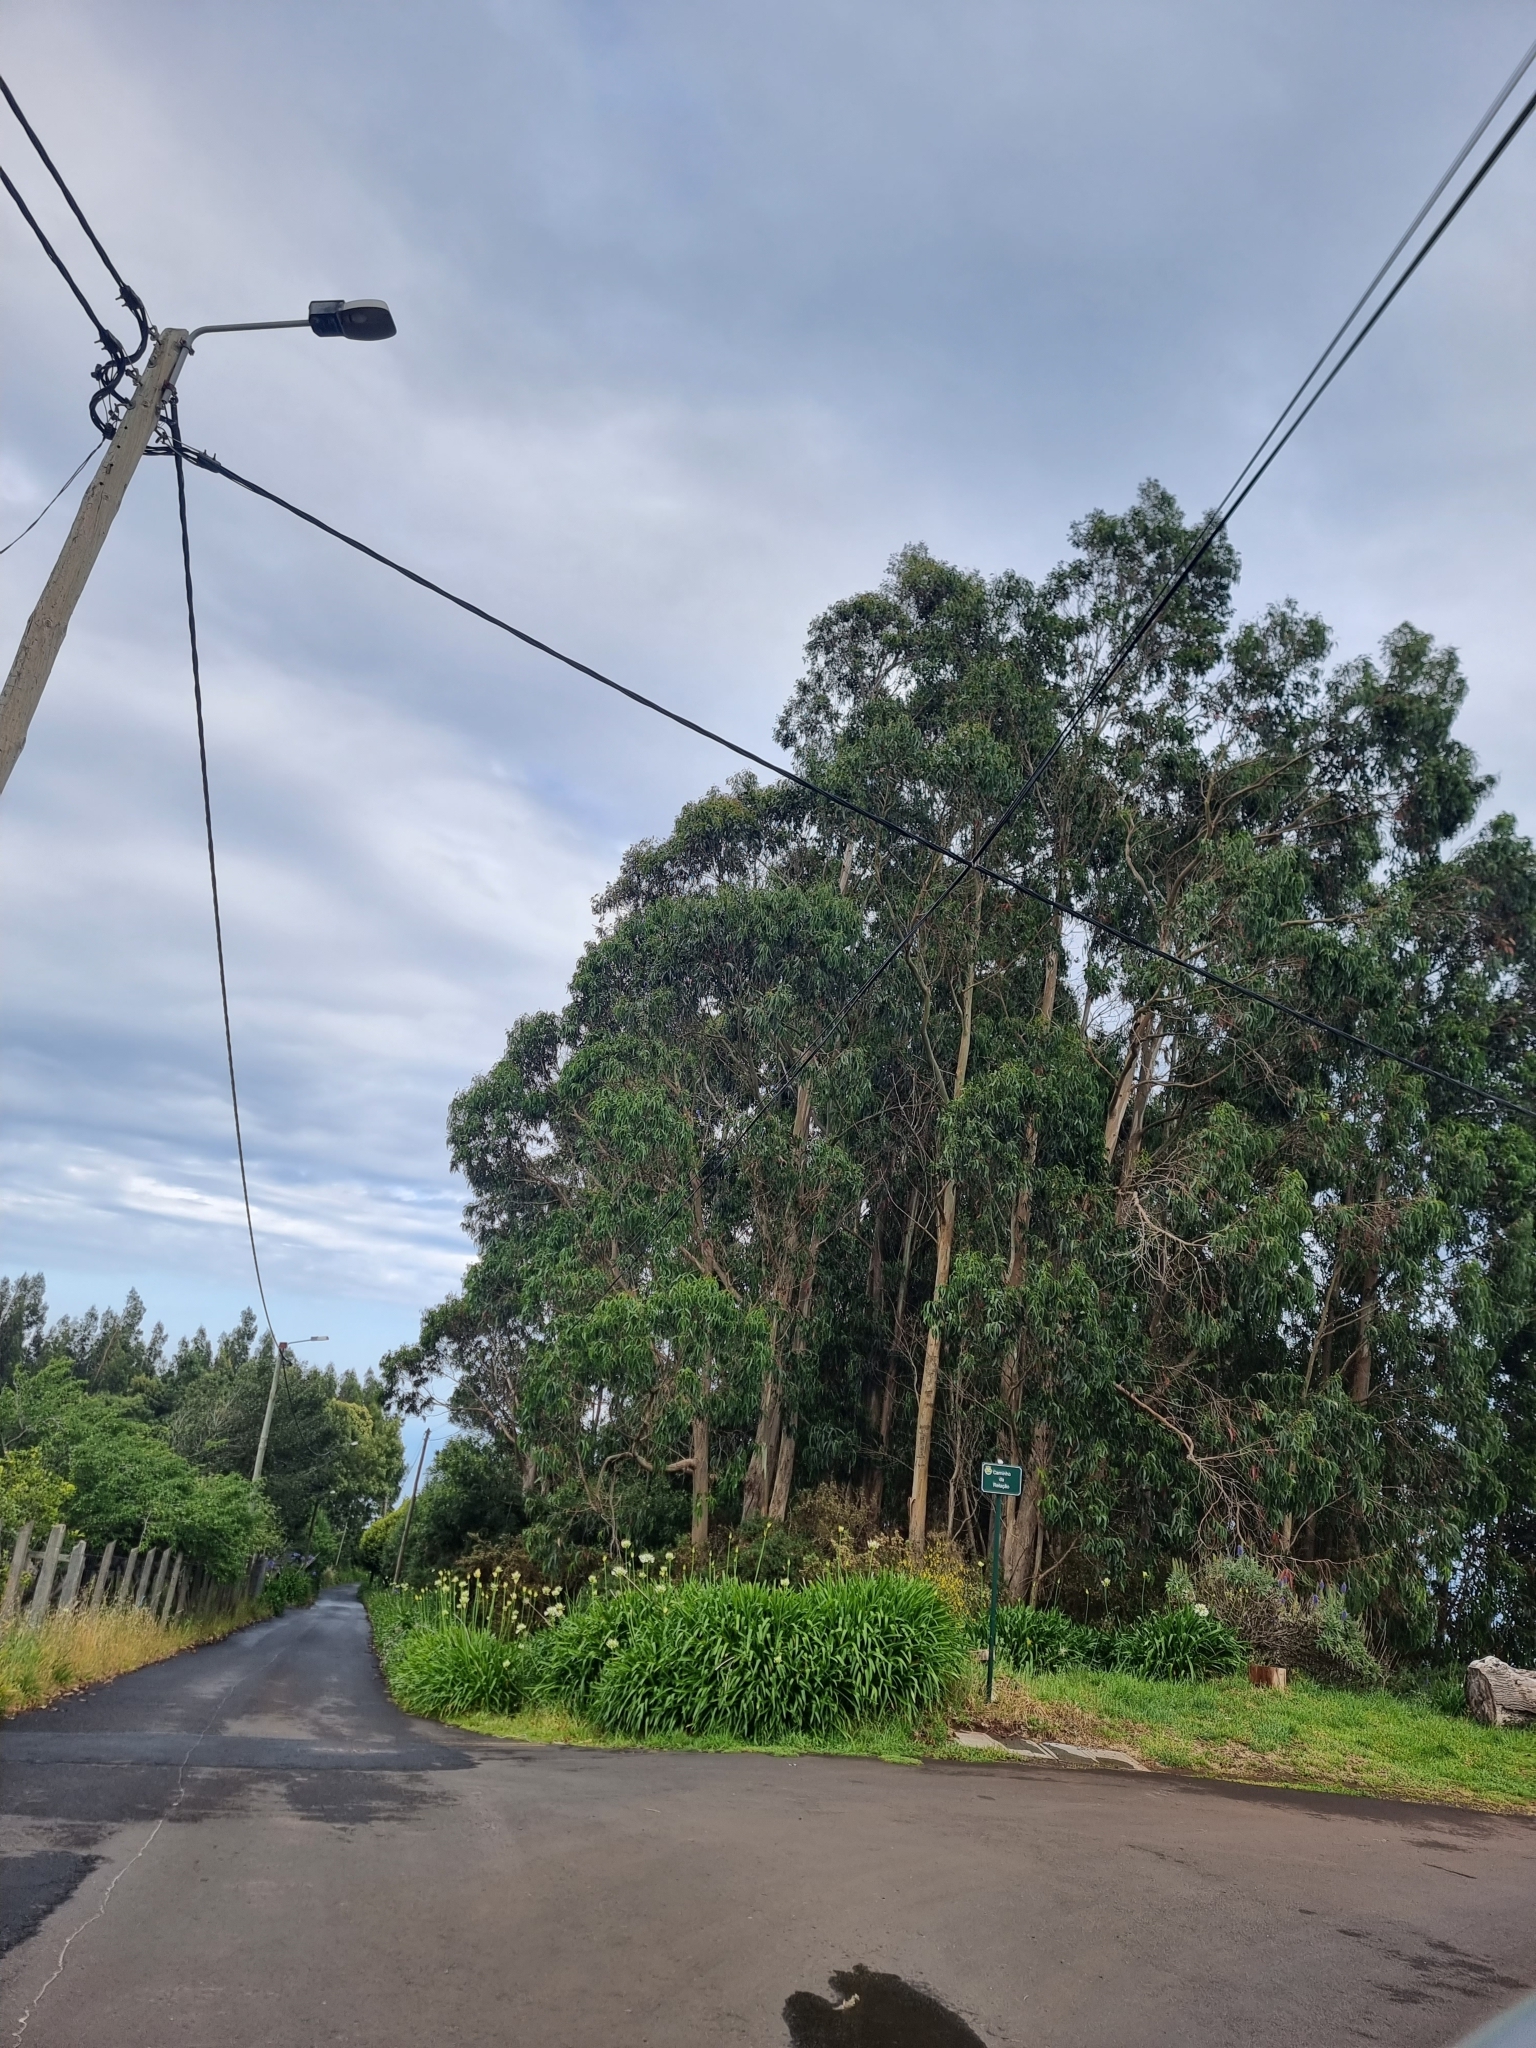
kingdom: Plantae
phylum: Tracheophyta
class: Magnoliopsida
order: Myrtales
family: Myrtaceae
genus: Eucalyptus
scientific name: Eucalyptus globulus
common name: Southern blue-gum
